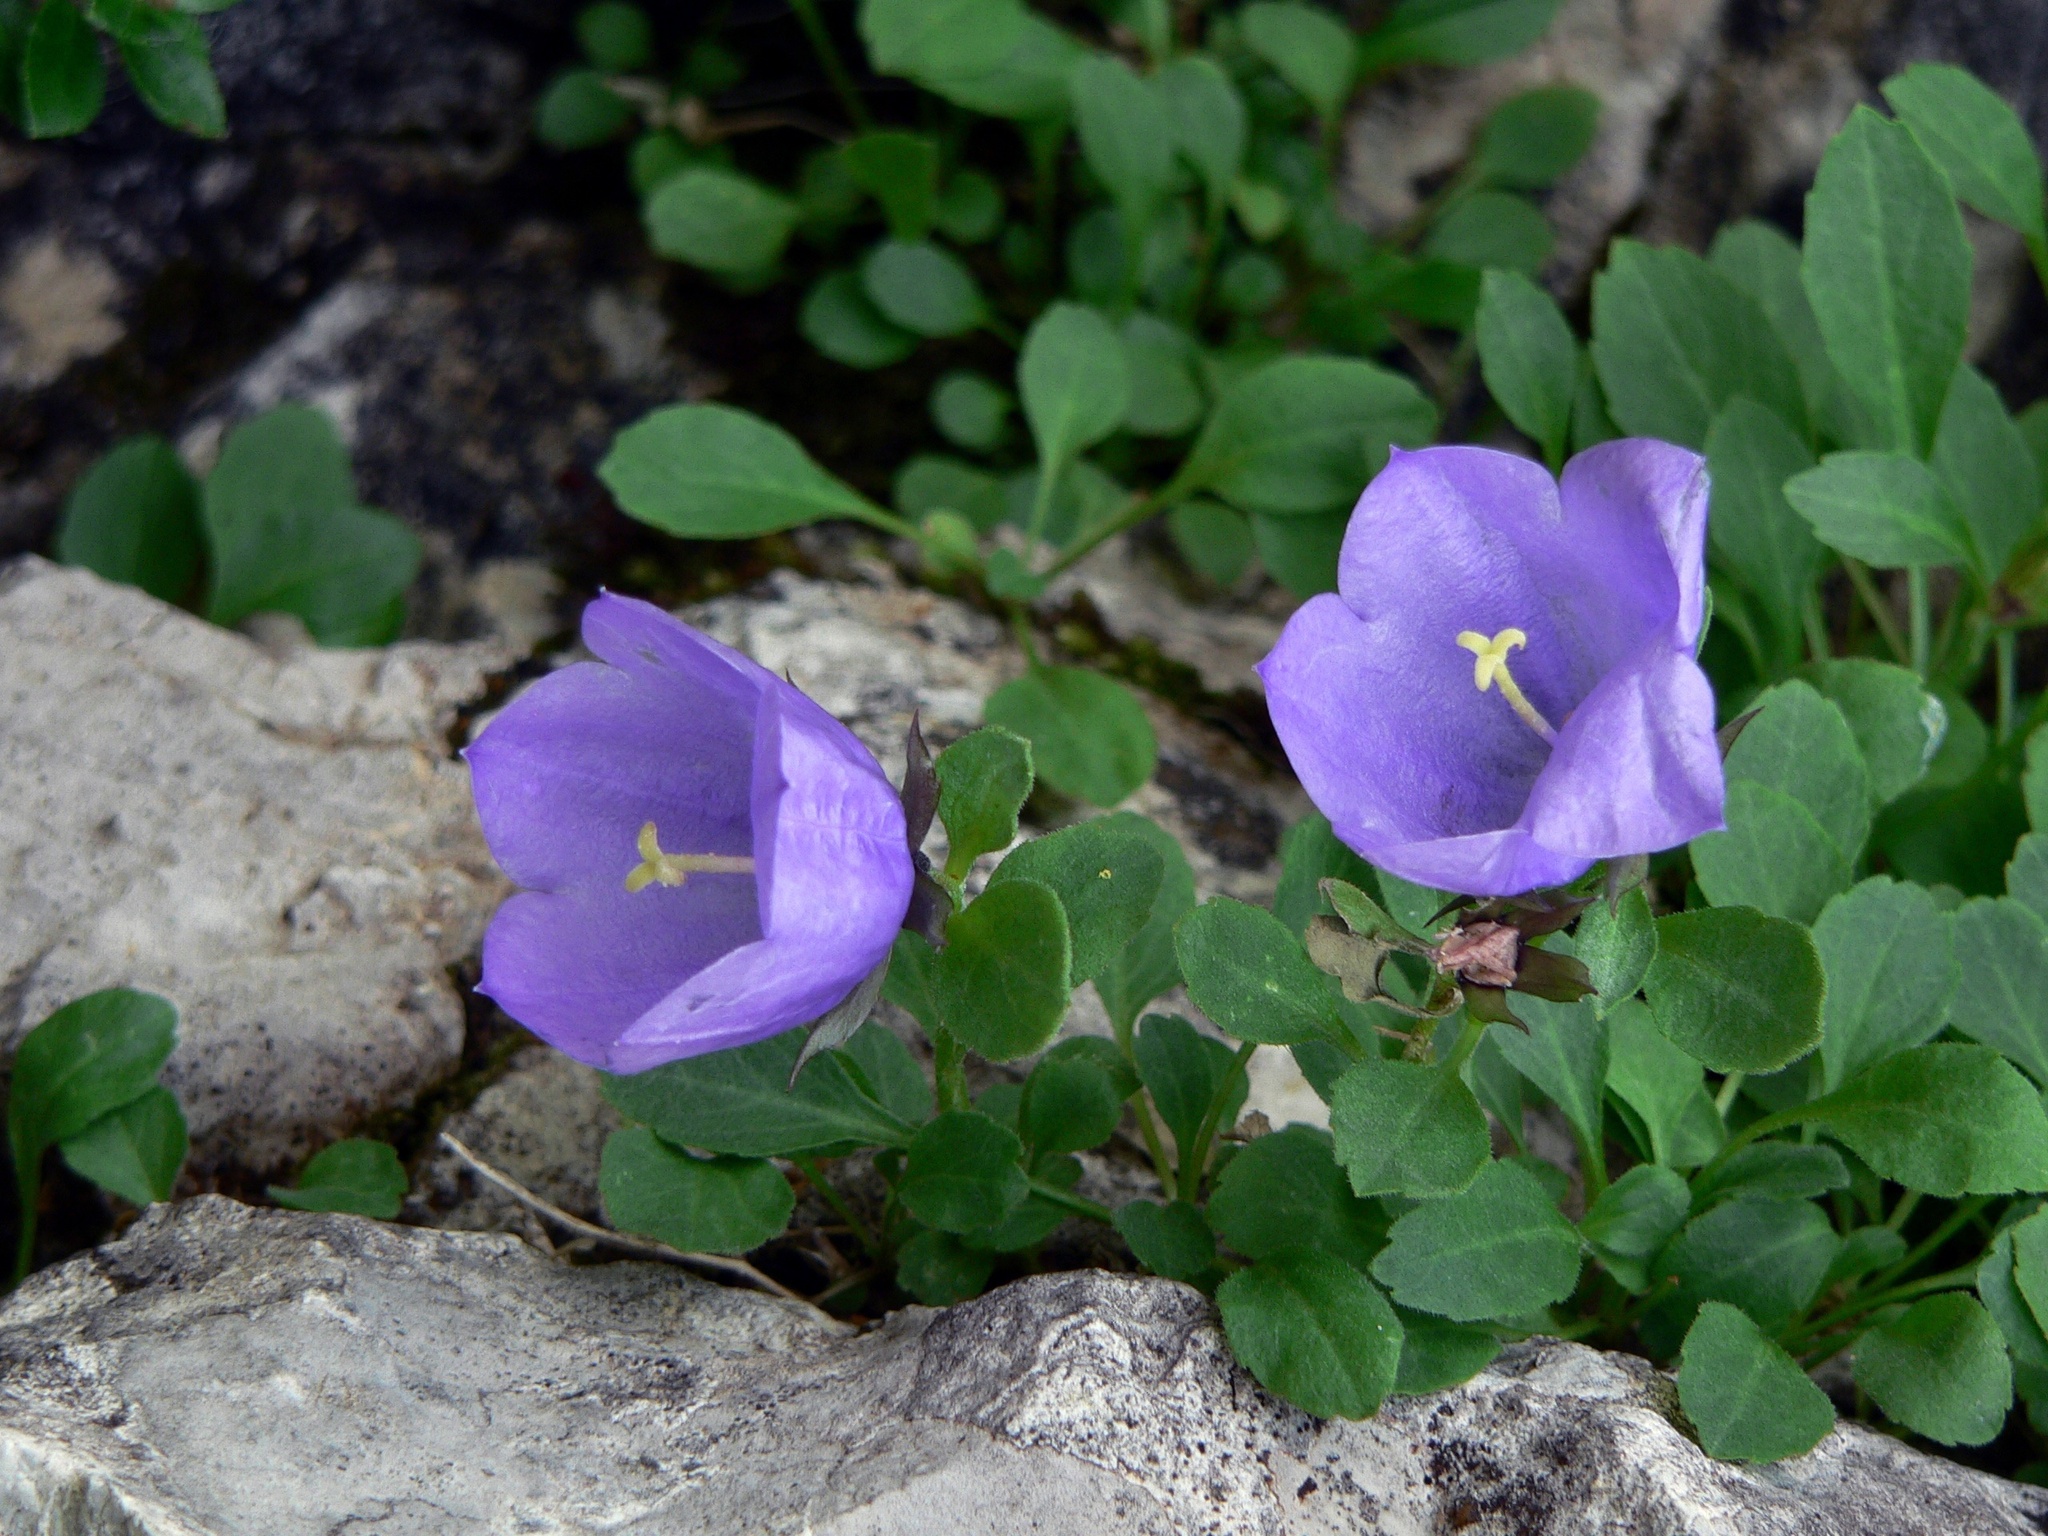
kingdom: Plantae
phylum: Tracheophyta
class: Magnoliopsida
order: Asterales
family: Campanulaceae
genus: Campanula
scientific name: Campanula raineri
